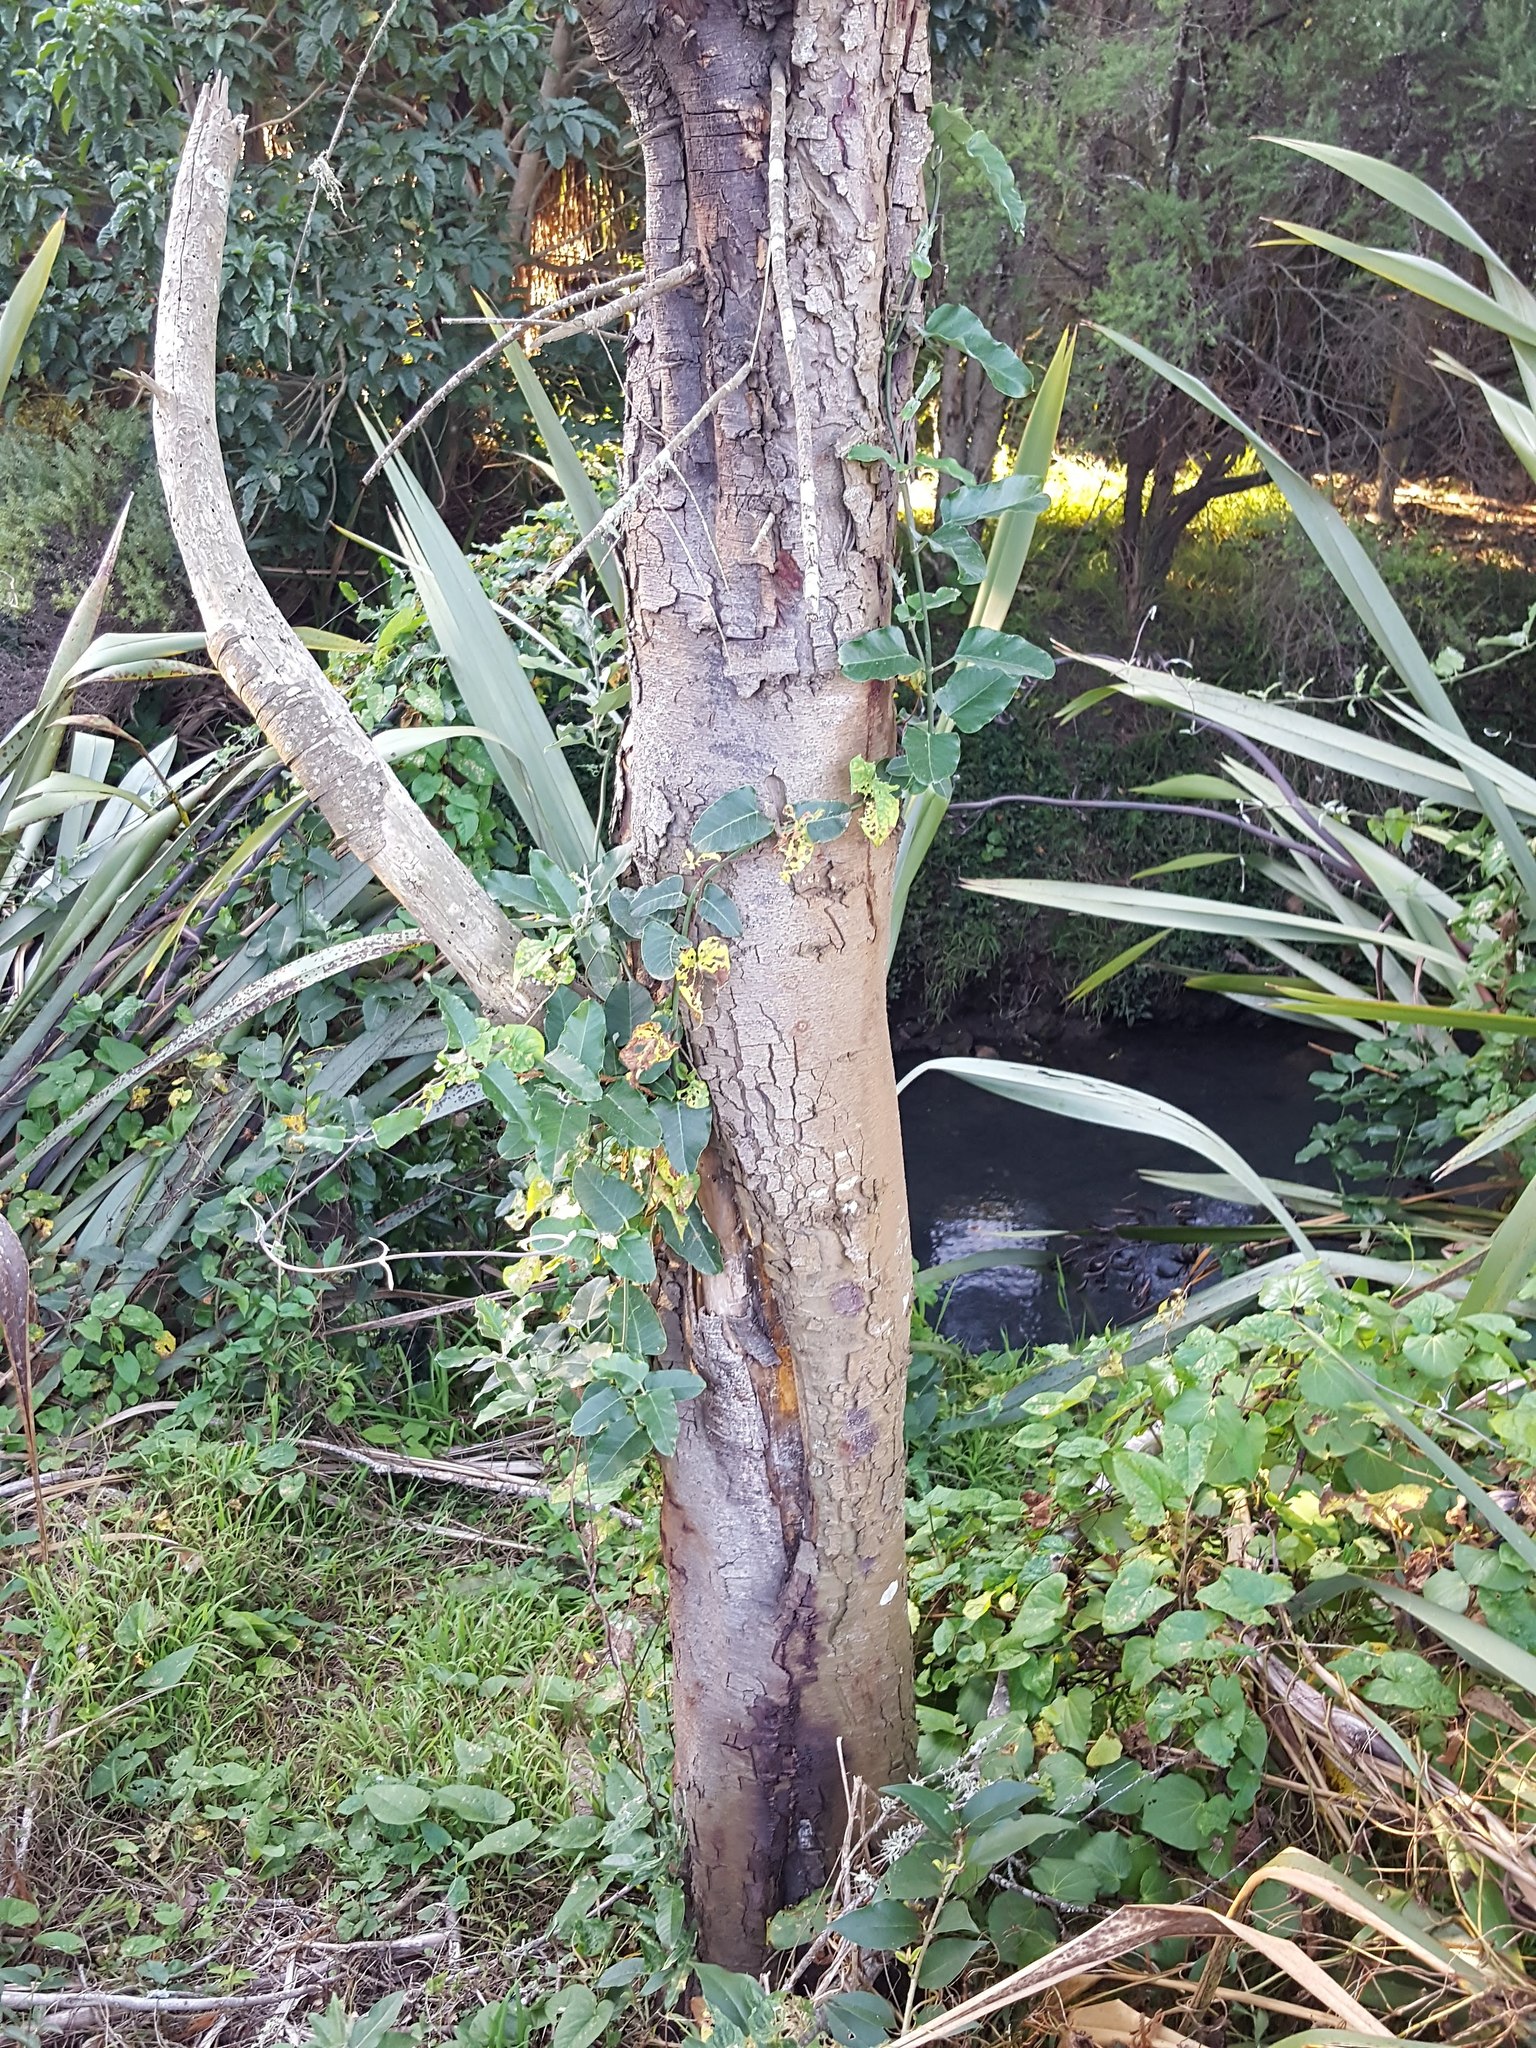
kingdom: Plantae
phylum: Tracheophyta
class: Magnoliopsida
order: Gentianales
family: Apocynaceae
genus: Araujia
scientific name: Araujia sericifera
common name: White bladderflower
